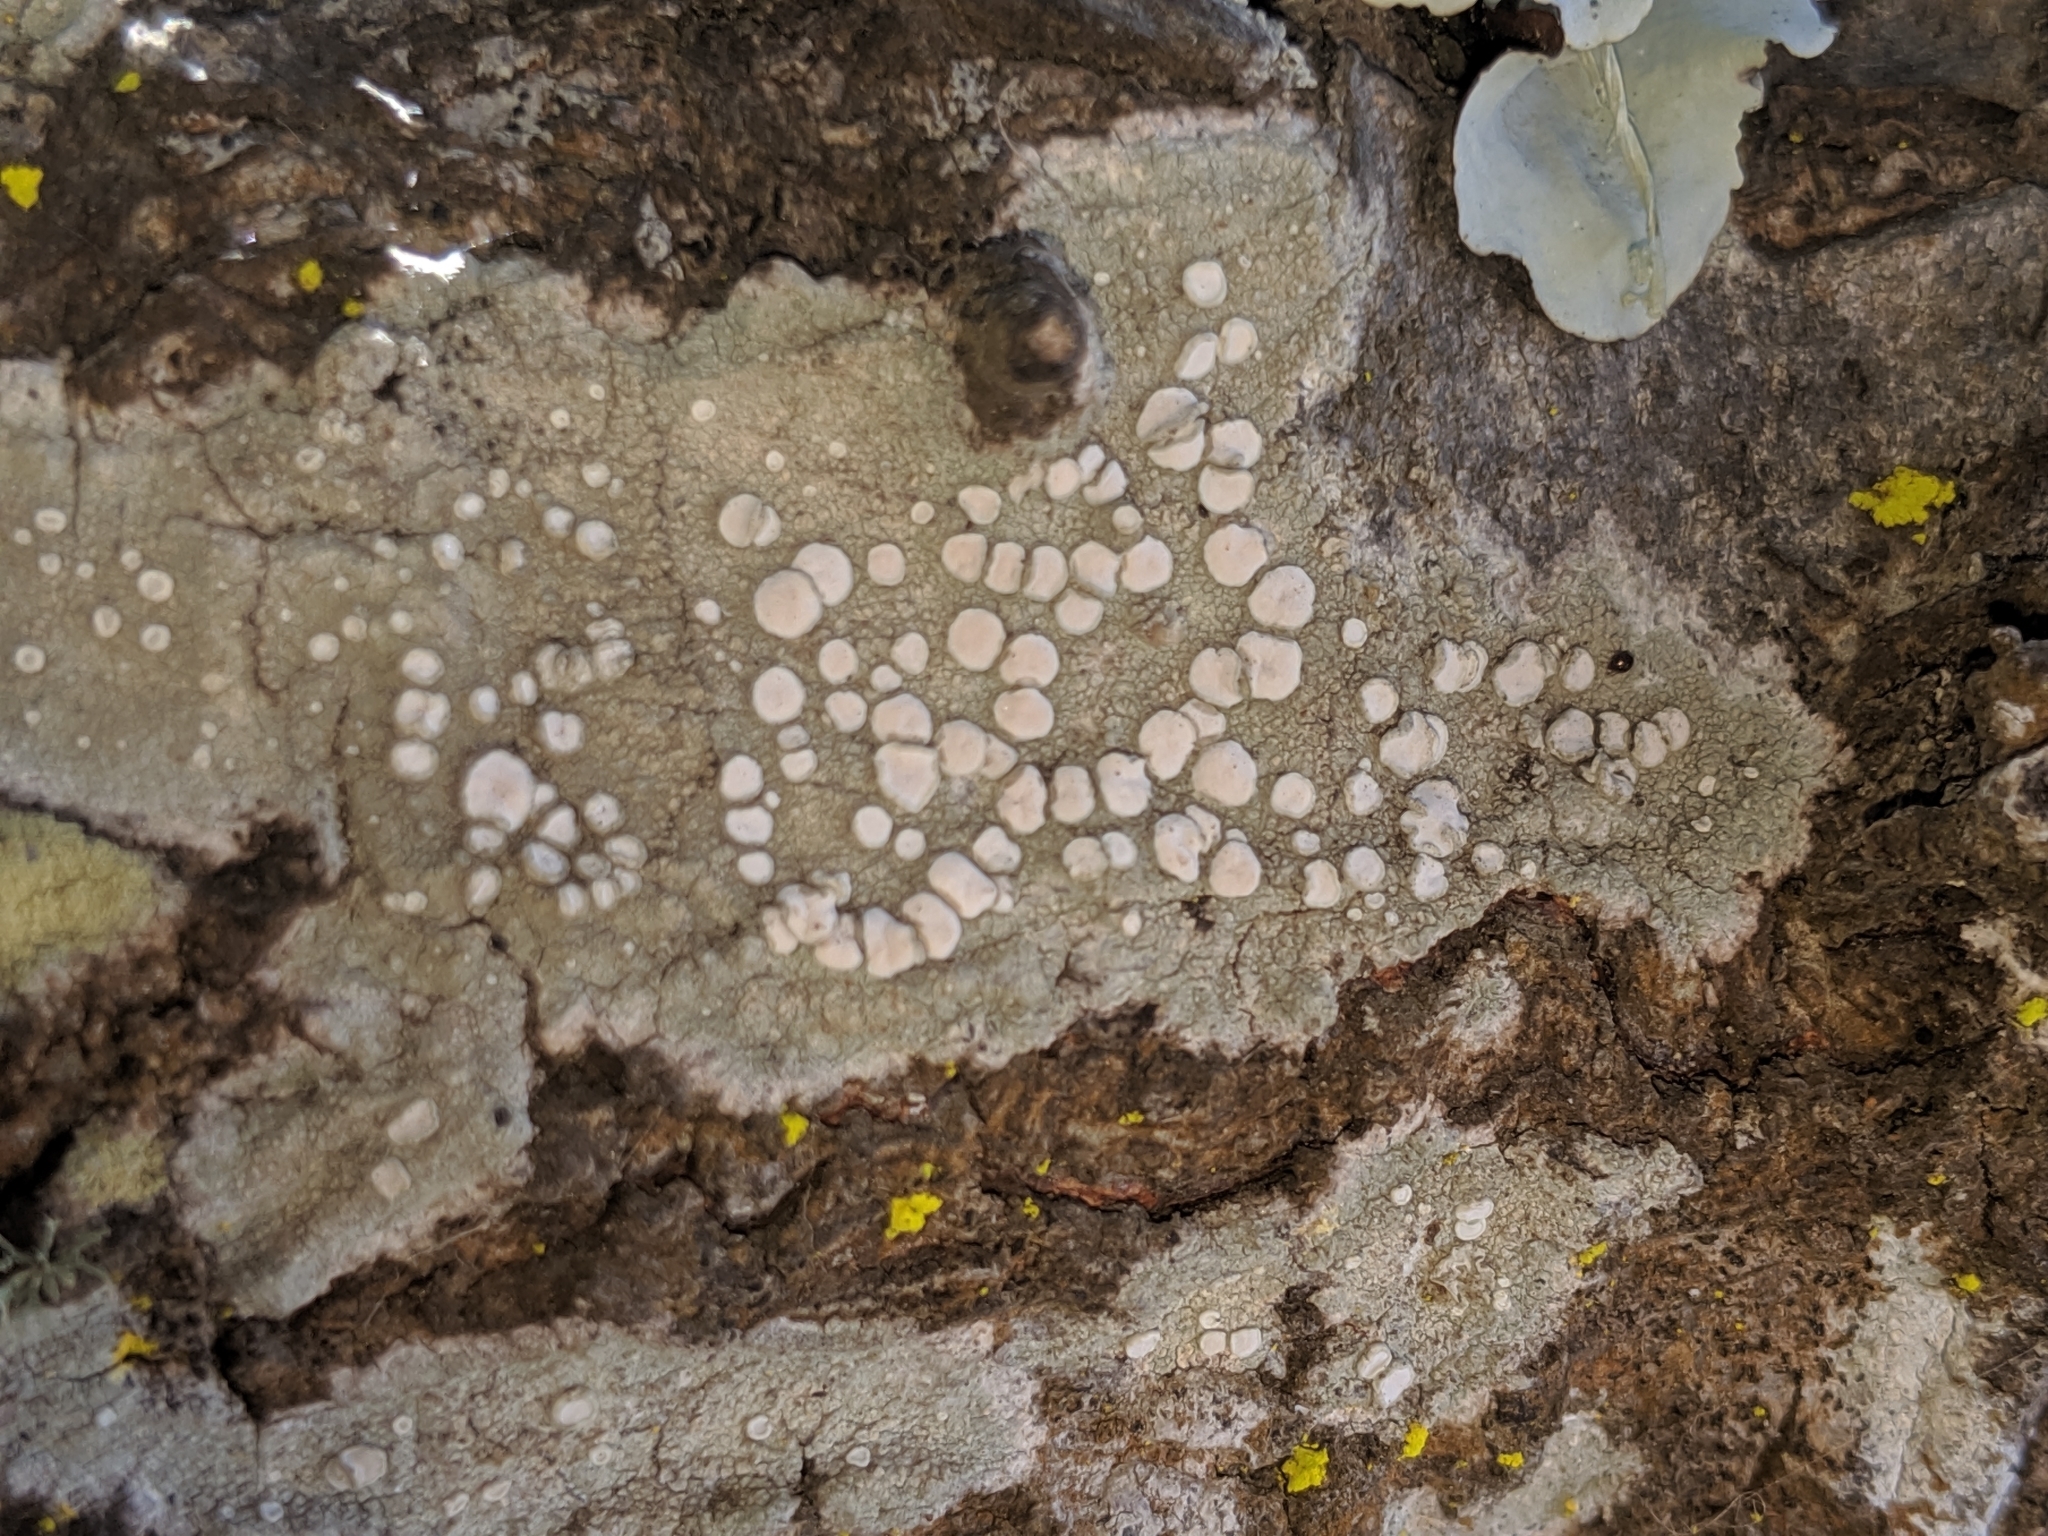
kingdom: Fungi
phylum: Ascomycota
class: Lecanoromycetes
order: Lecanorales
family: Lecanoraceae
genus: Lecanora
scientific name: Lecanora caesiorubella
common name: Frosted rim-lichen
